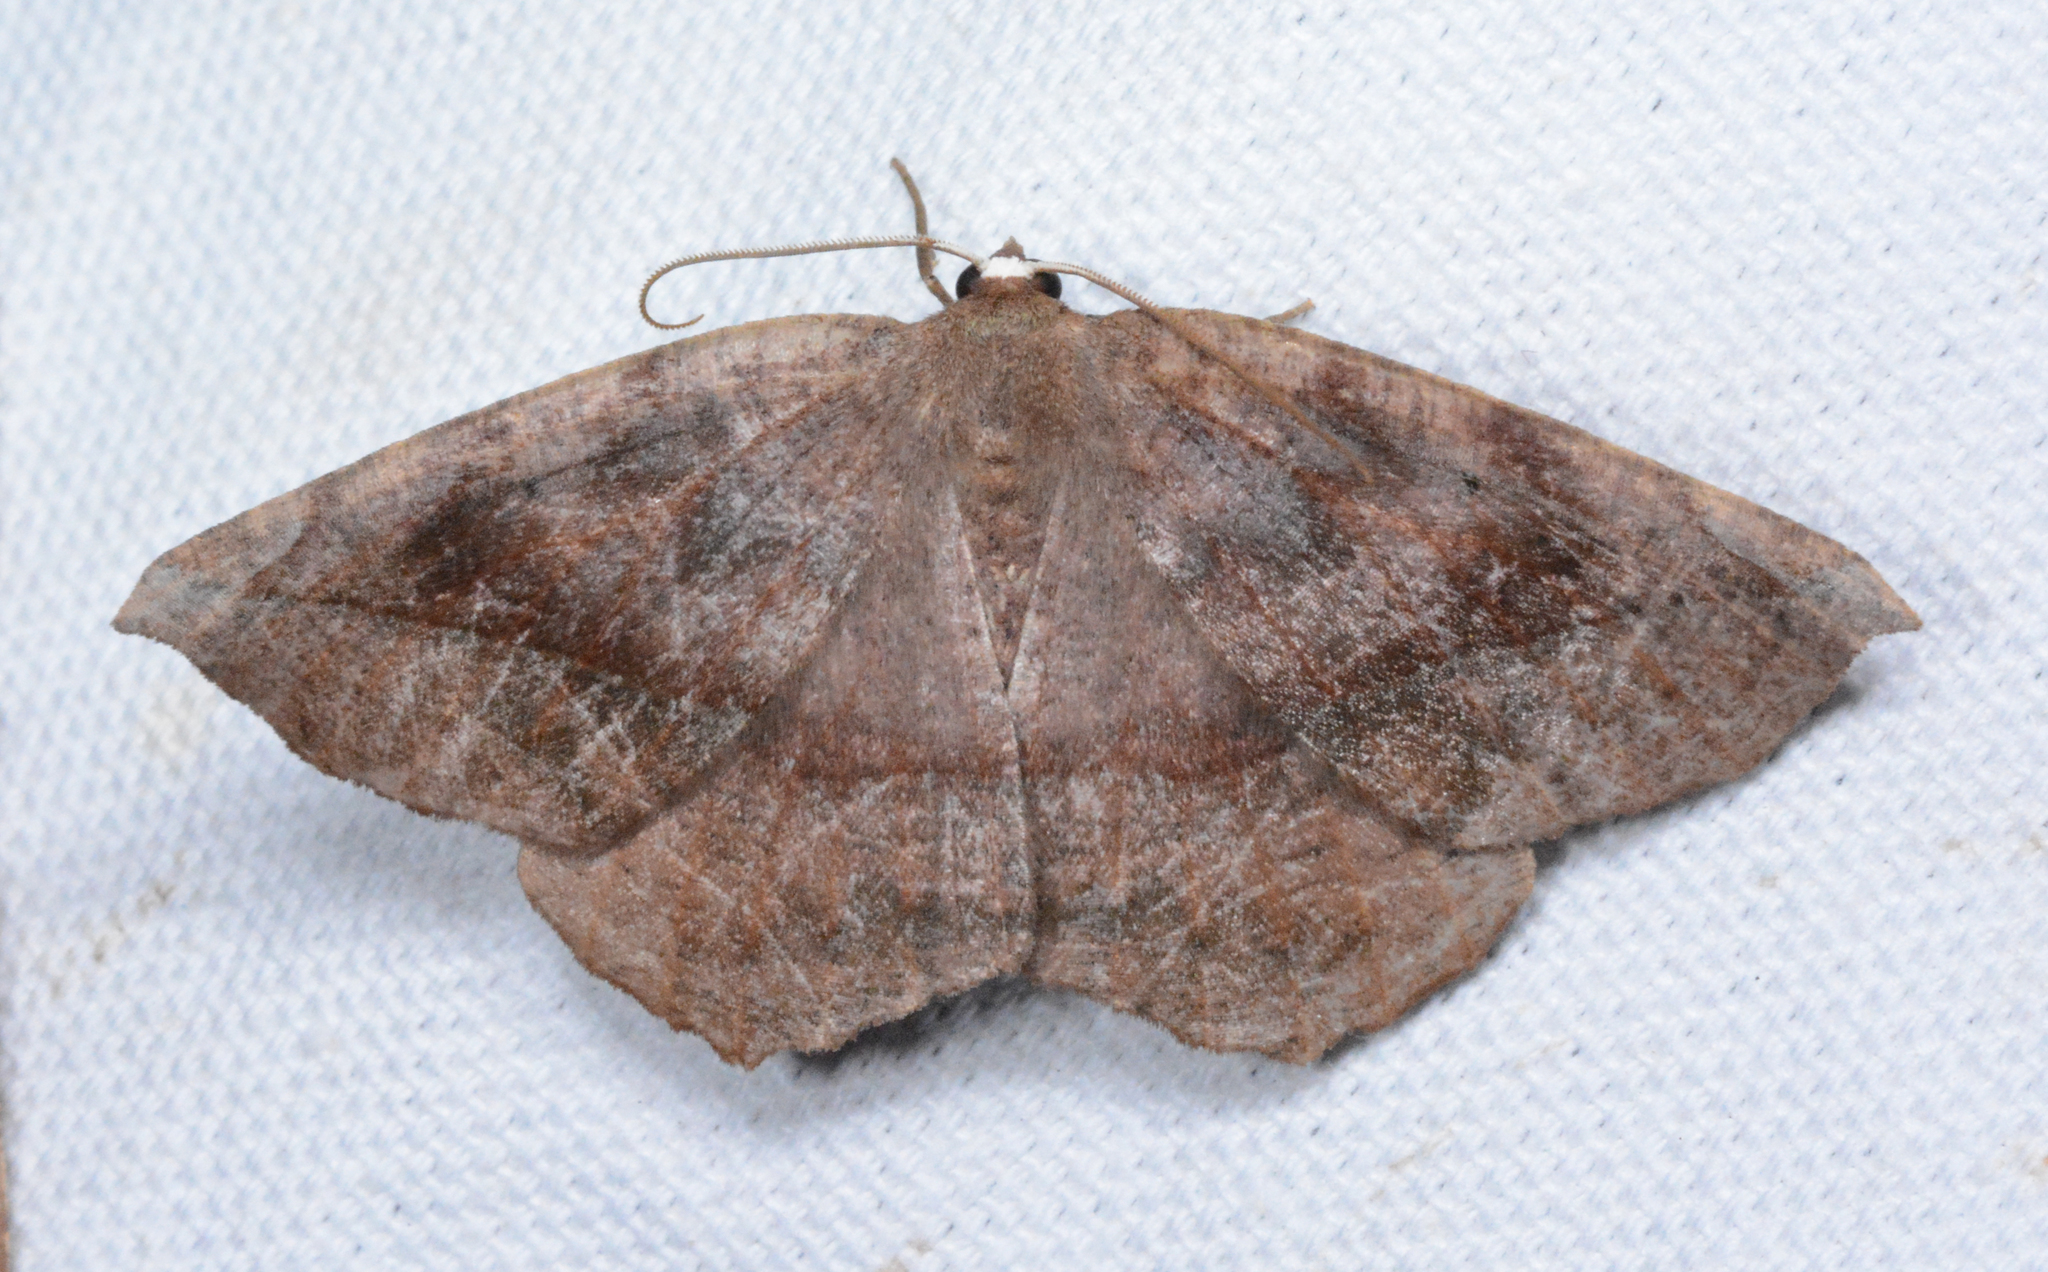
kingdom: Animalia
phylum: Arthropoda
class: Insecta
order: Lepidoptera
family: Geometridae
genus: Eutrapela
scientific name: Eutrapela clemataria
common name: Curved-toothed geometer
